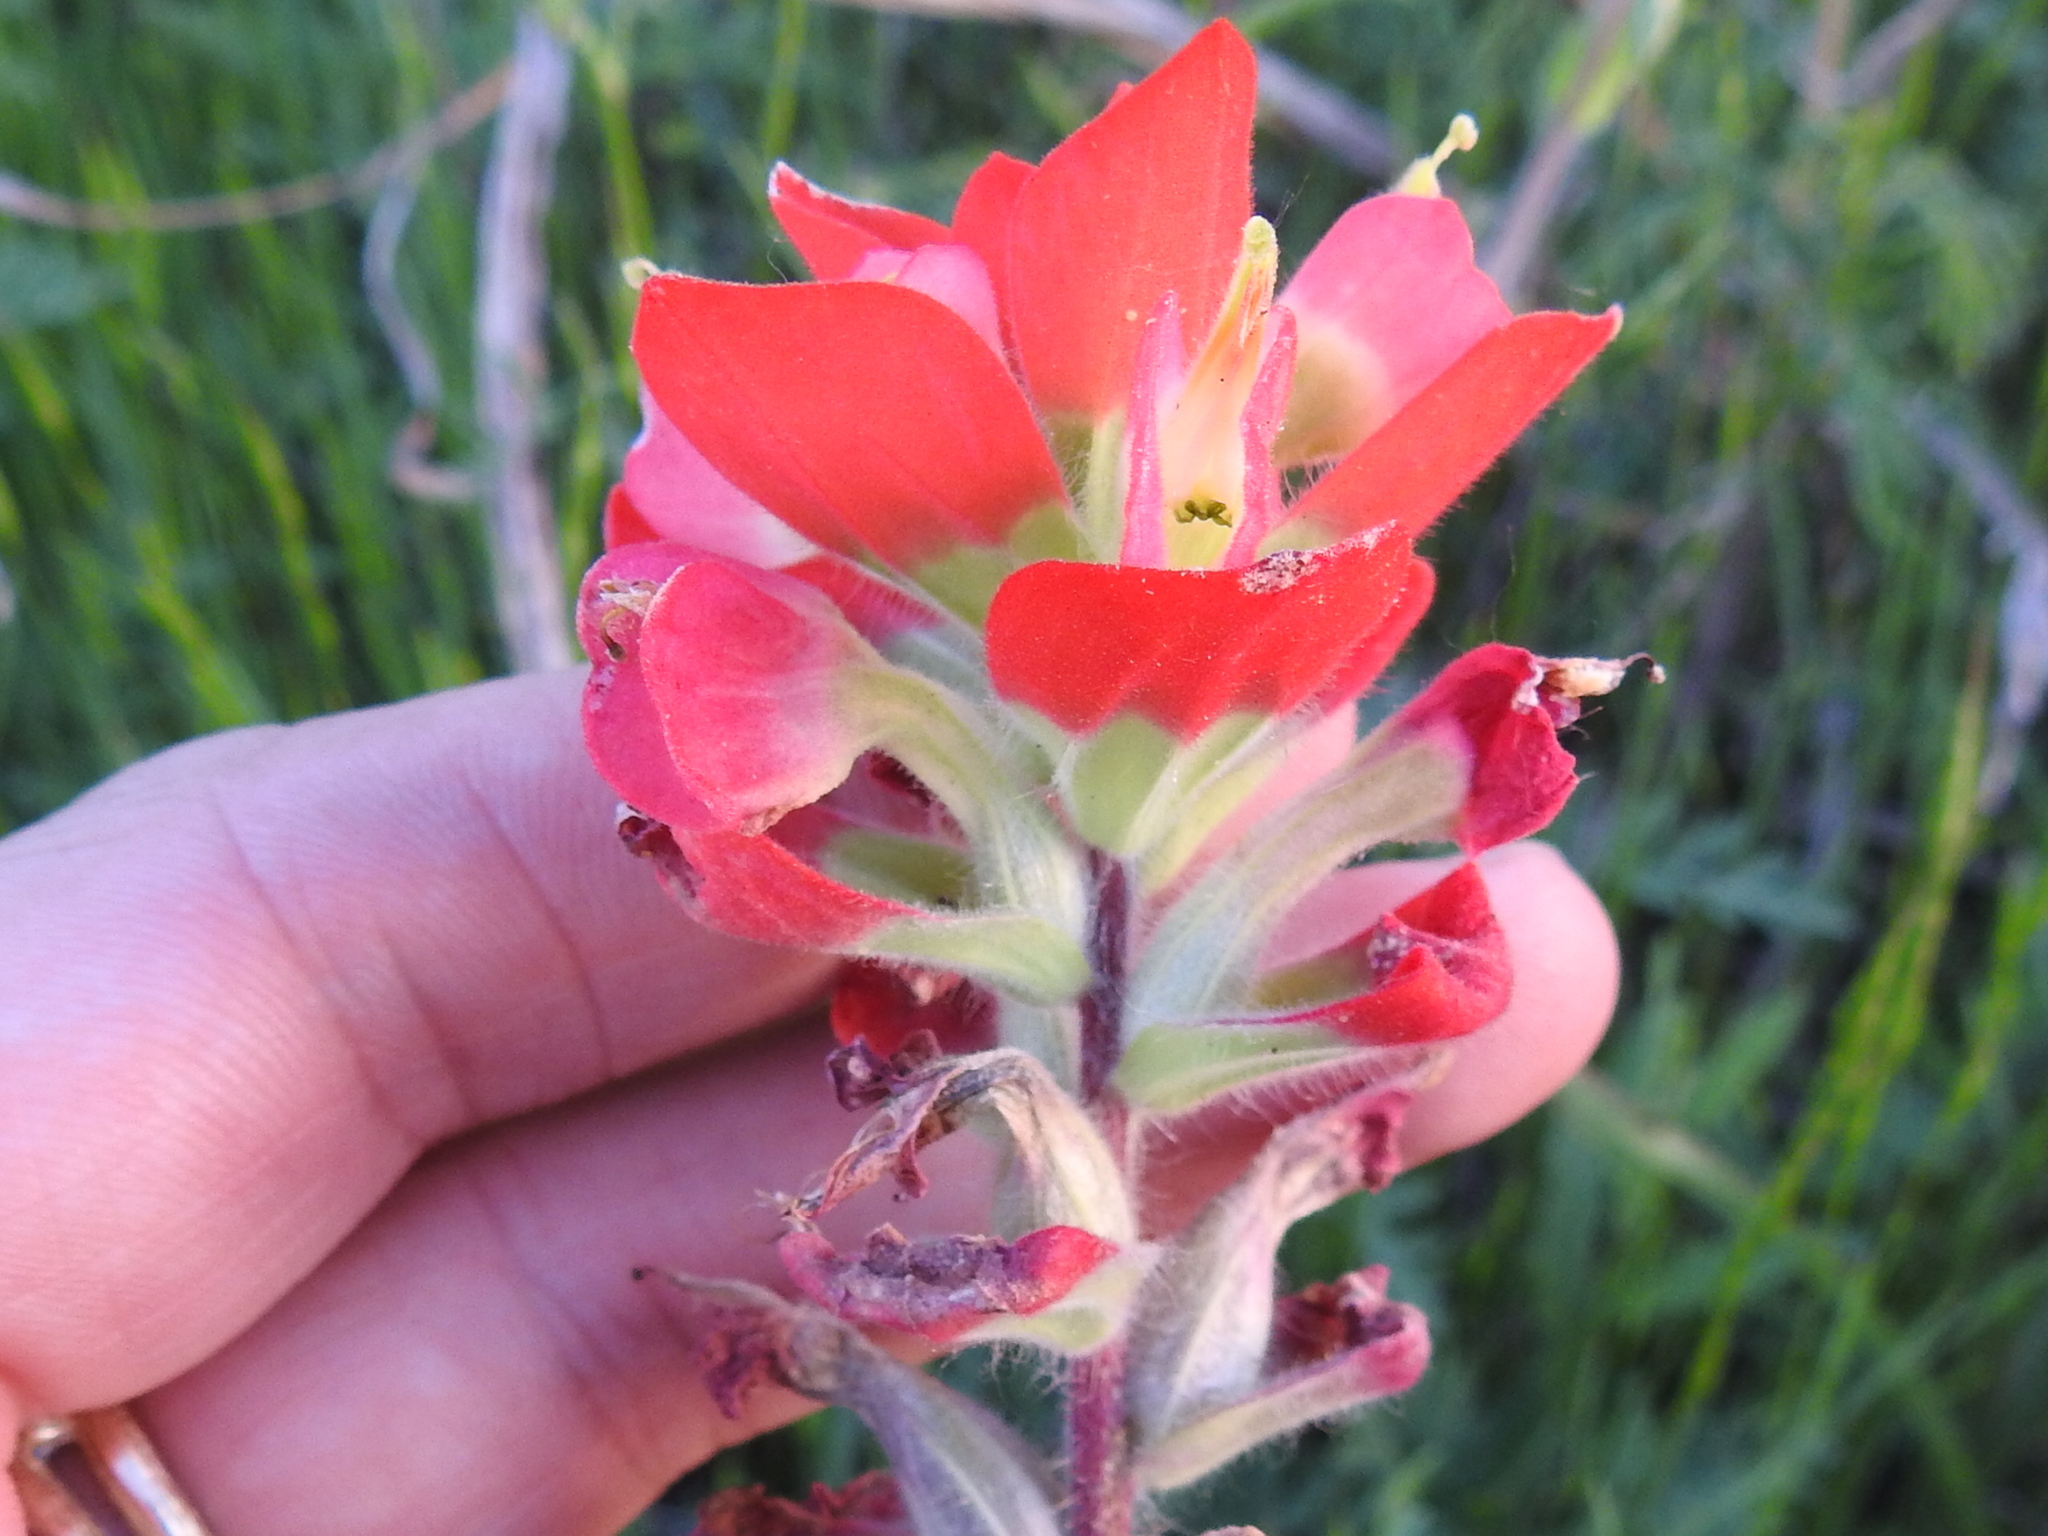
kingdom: Plantae
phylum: Tracheophyta
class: Magnoliopsida
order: Lamiales
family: Orobanchaceae
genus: Castilleja
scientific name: Castilleja indivisa
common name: Texas paintbrush
